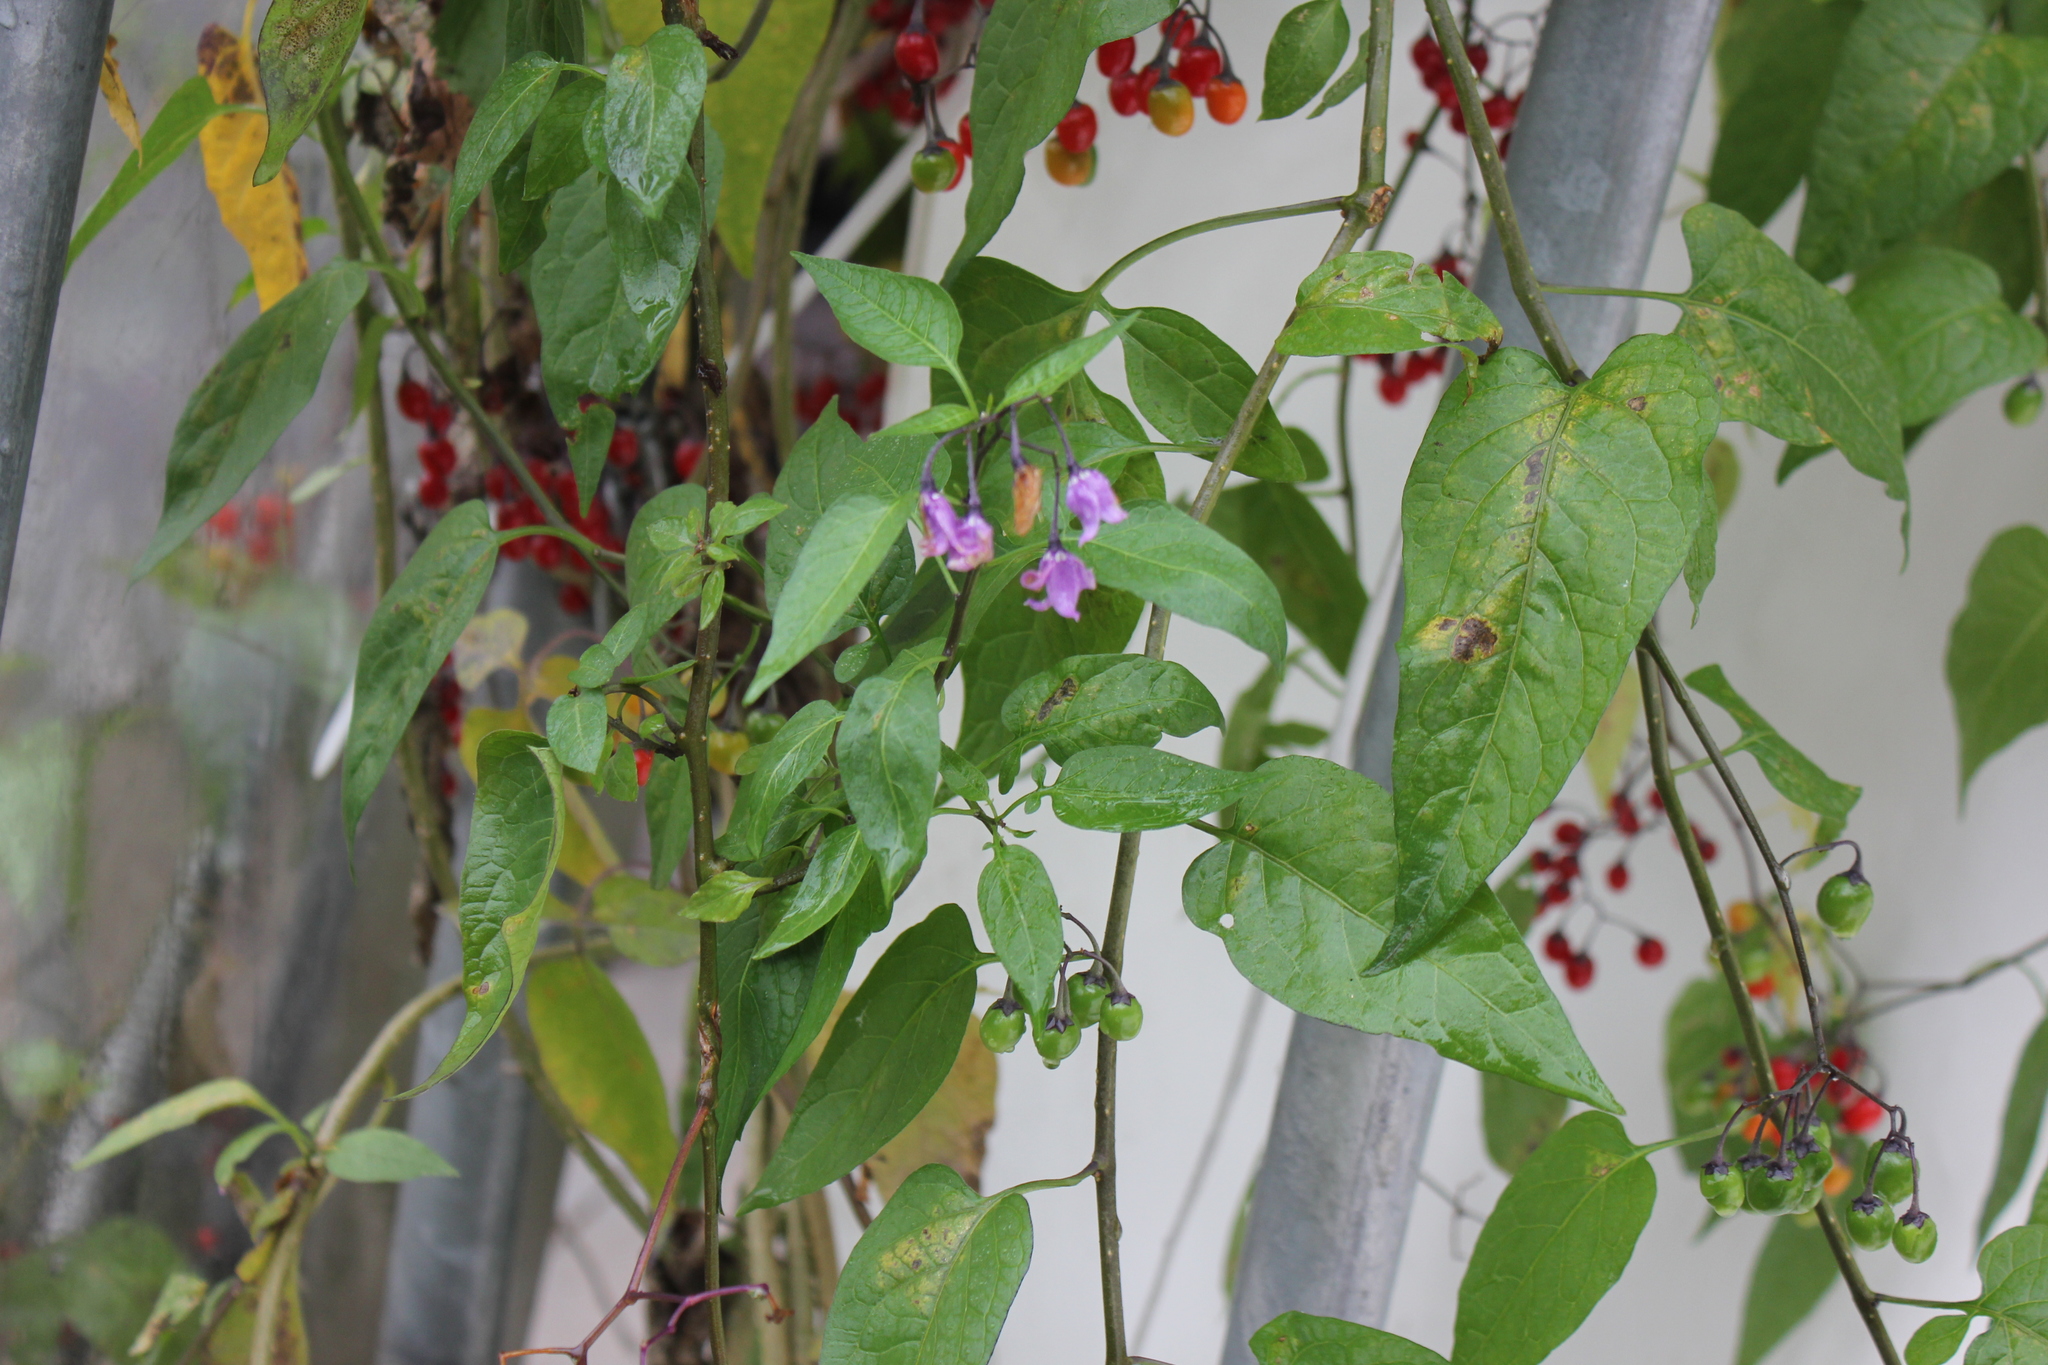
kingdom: Plantae
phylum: Tracheophyta
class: Magnoliopsida
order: Solanales
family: Solanaceae
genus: Solanum
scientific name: Solanum dulcamara
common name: Climbing nightshade
